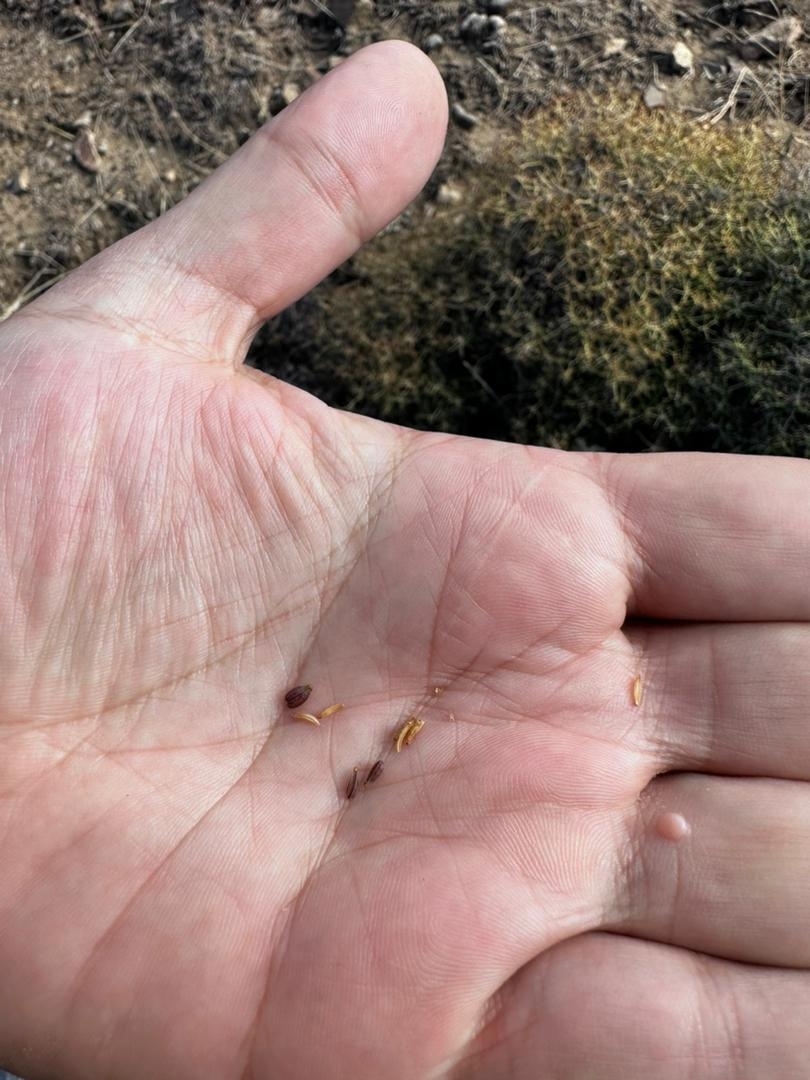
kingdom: Plantae
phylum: Tracheophyta
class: Magnoliopsida
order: Apiales
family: Apiaceae
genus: Bupleurum
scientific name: Bupleurum fruticescens
